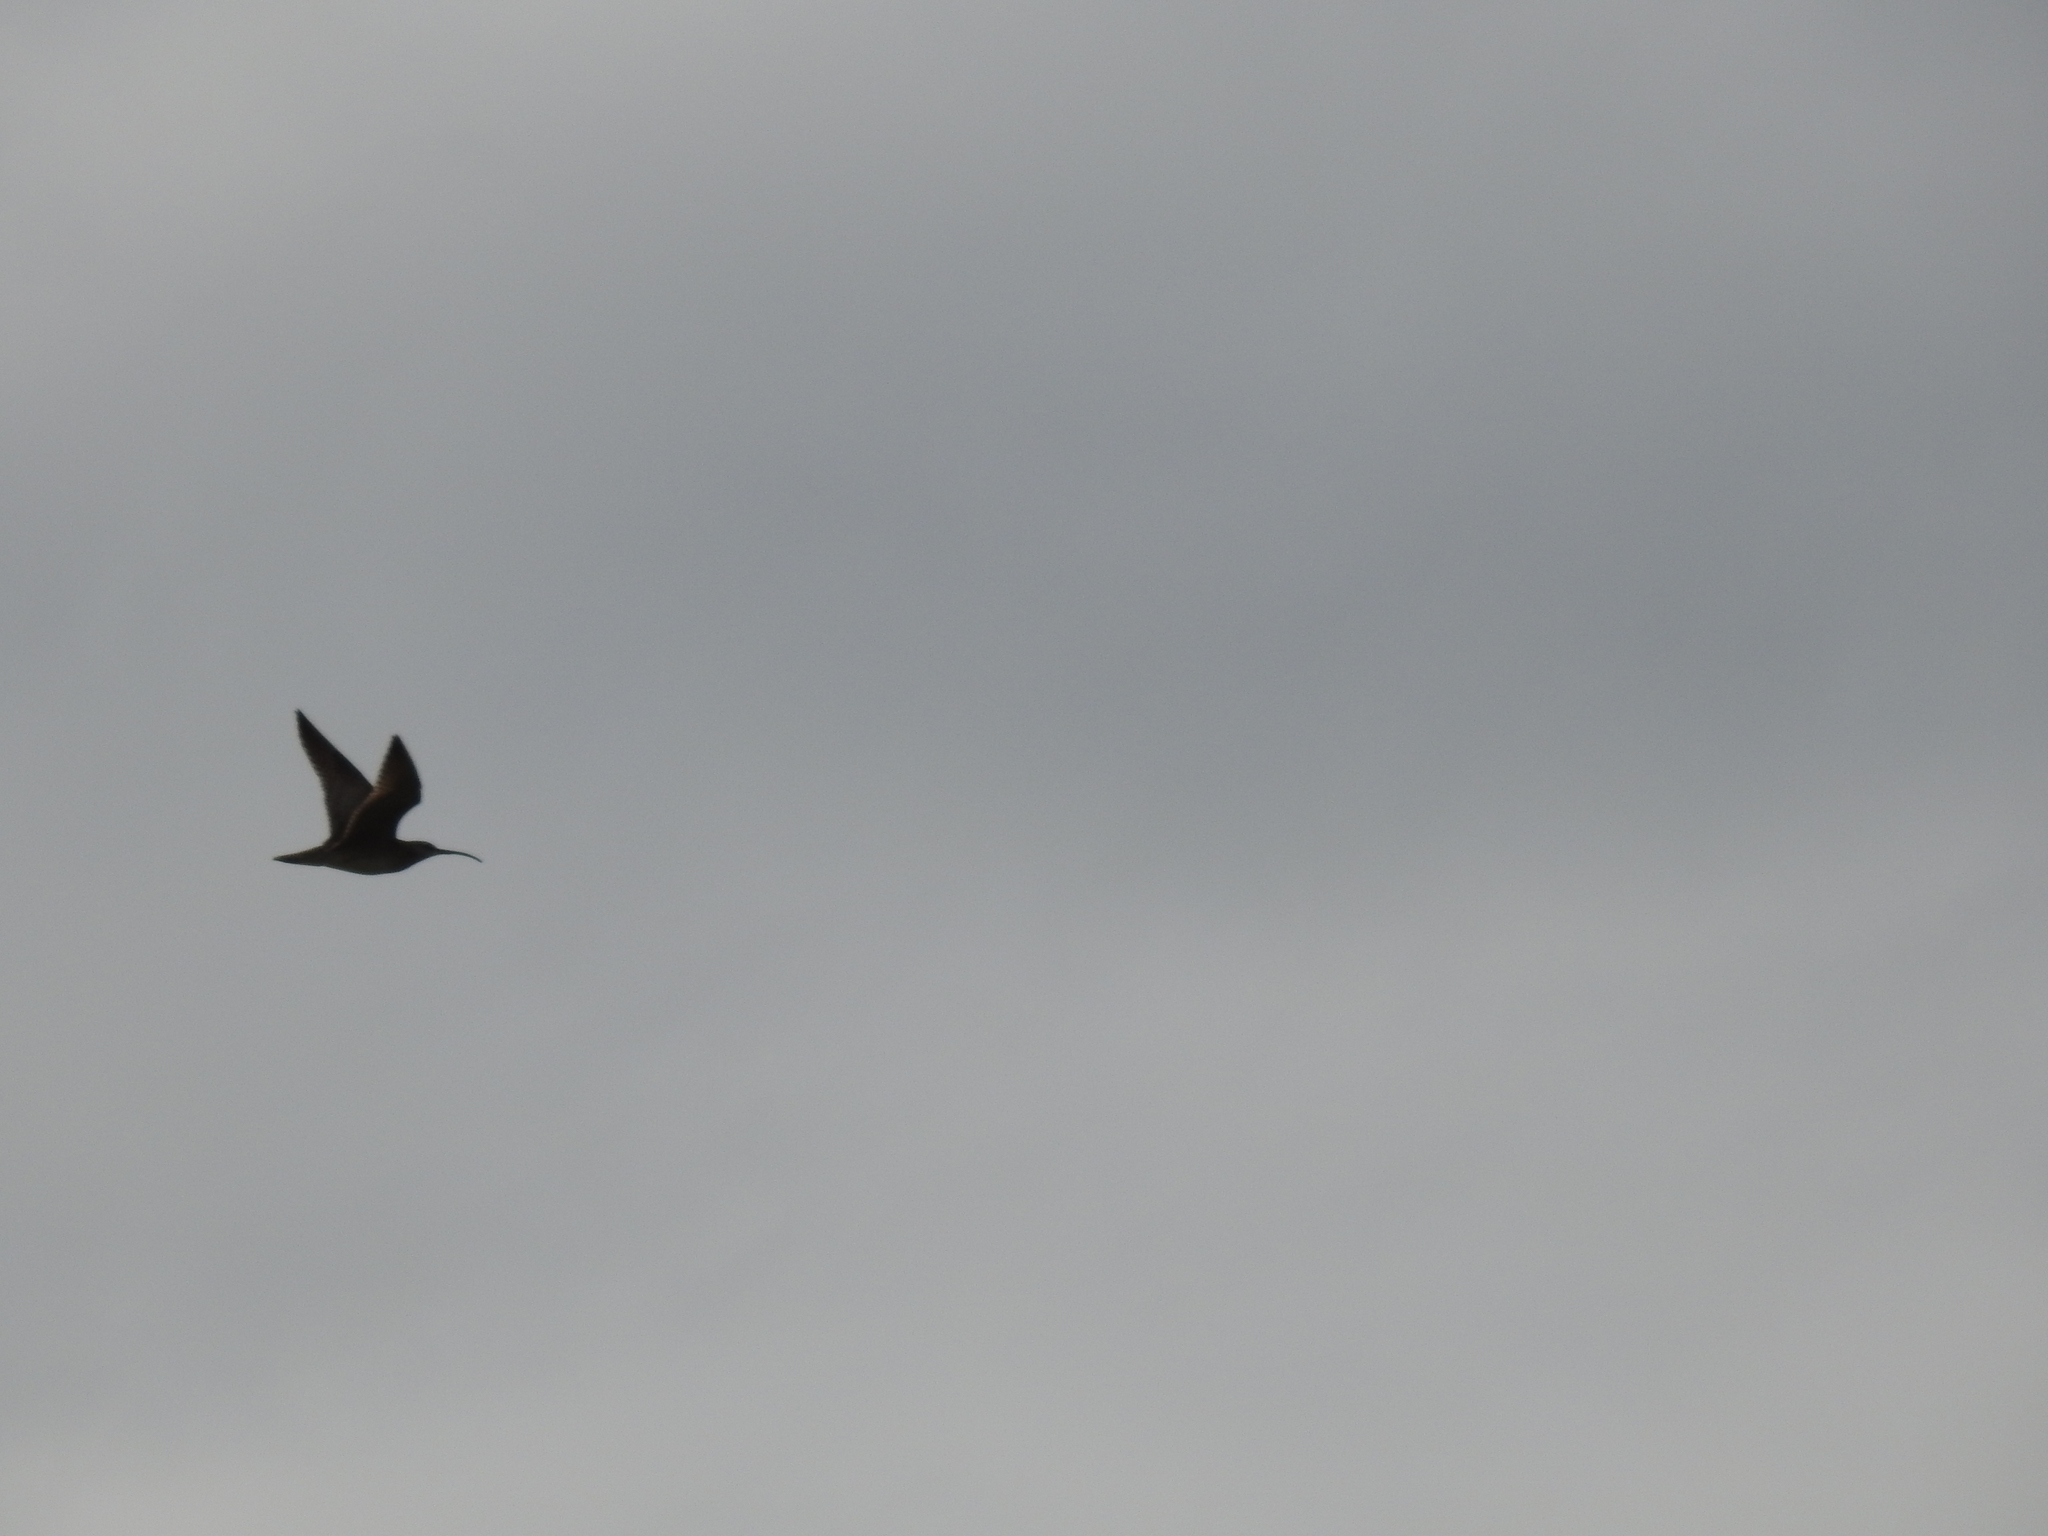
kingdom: Animalia
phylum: Chordata
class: Aves
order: Charadriiformes
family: Scolopacidae
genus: Numenius
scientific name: Numenius phaeopus
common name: Whimbrel
